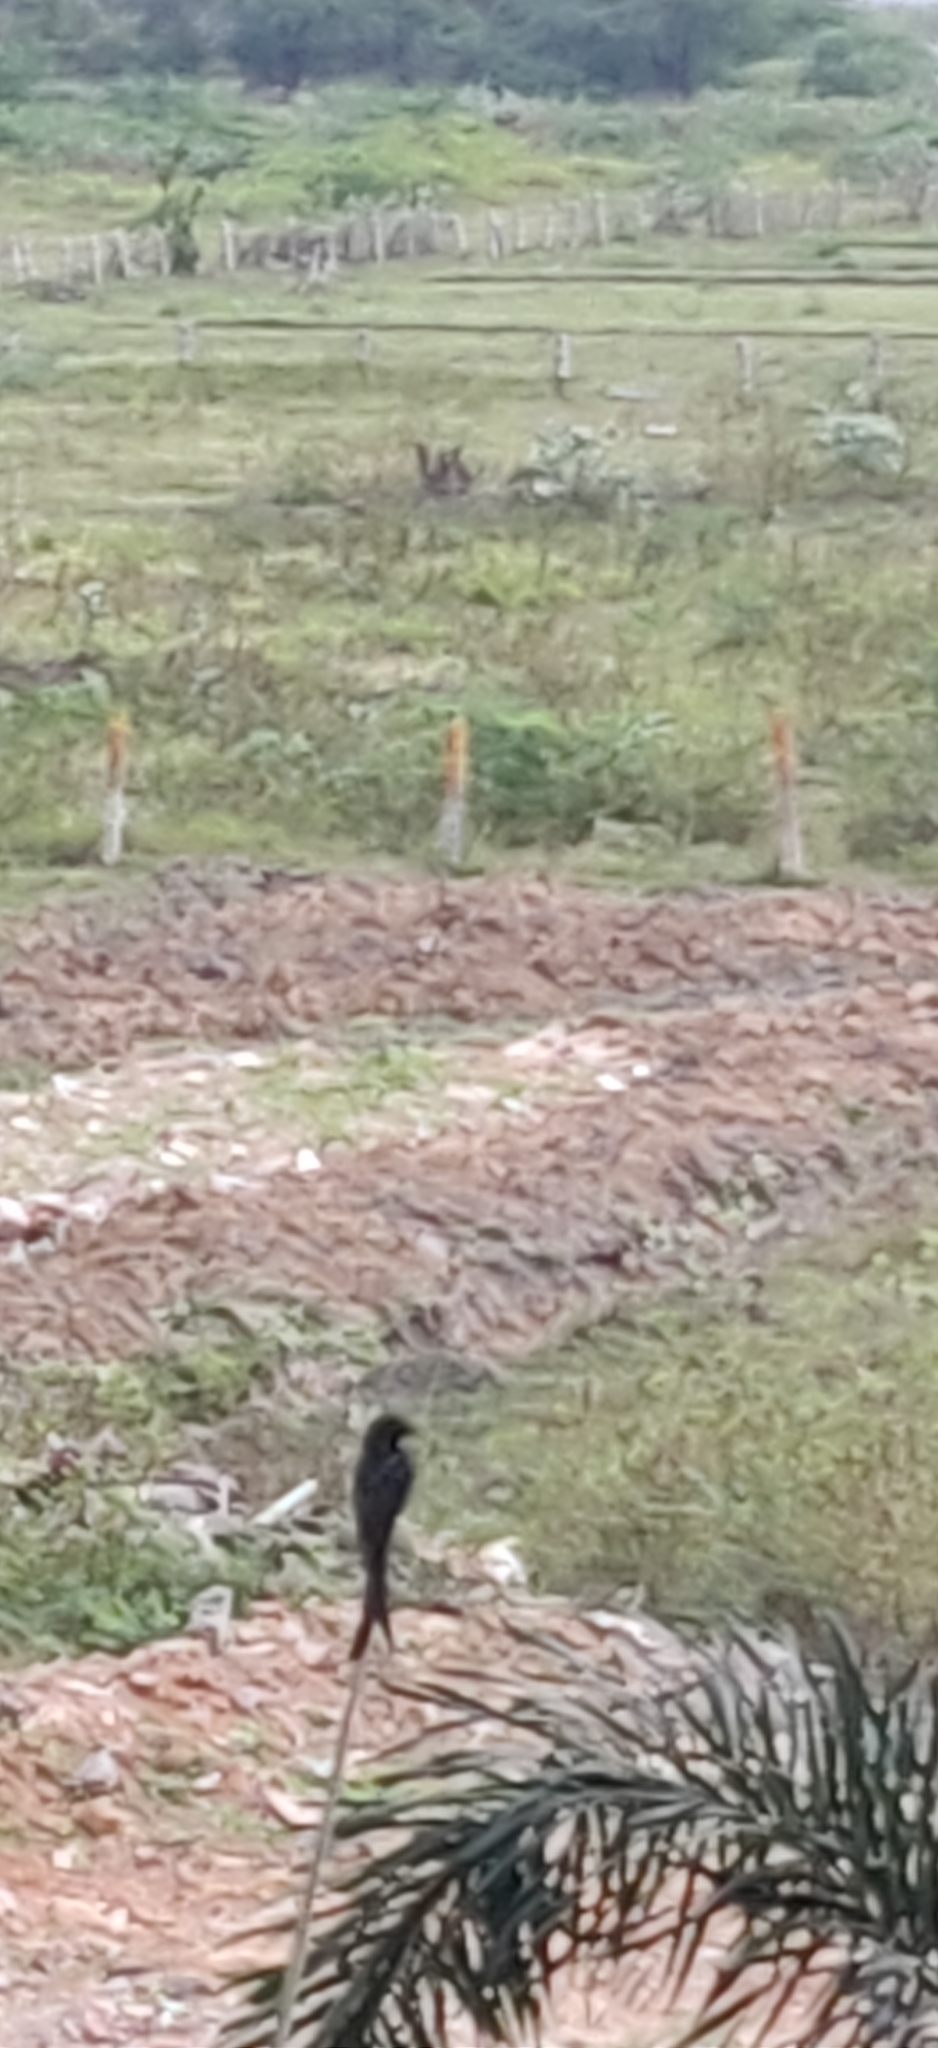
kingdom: Animalia
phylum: Chordata
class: Aves
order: Passeriformes
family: Dicruridae
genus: Dicrurus
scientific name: Dicrurus macrocercus
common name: Black drongo
